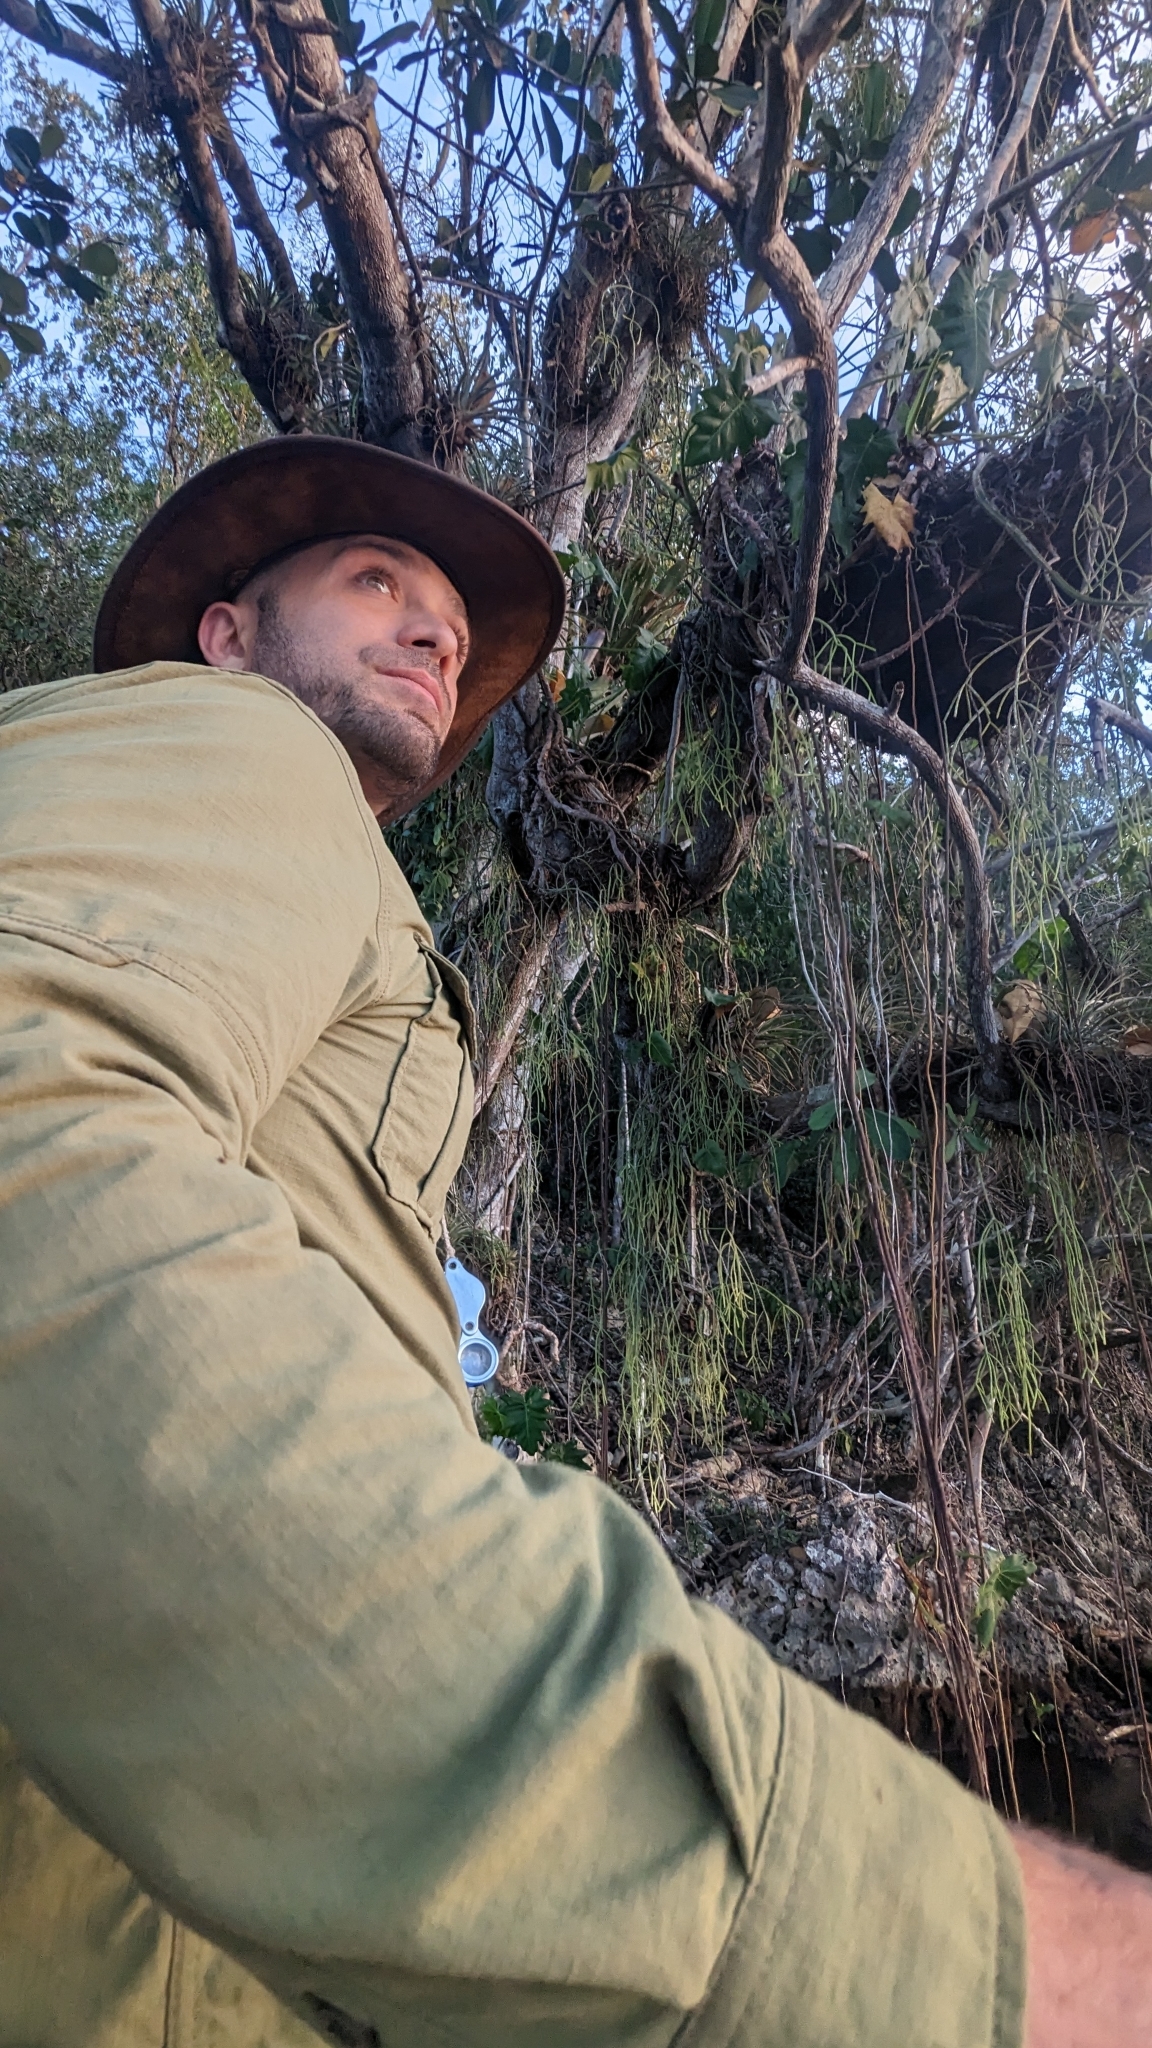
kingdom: Plantae
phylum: Tracheophyta
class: Magnoliopsida
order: Caryophyllales
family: Cactaceae
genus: Rhipsalis
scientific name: Rhipsalis baccifera
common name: Mistletoe cactus
